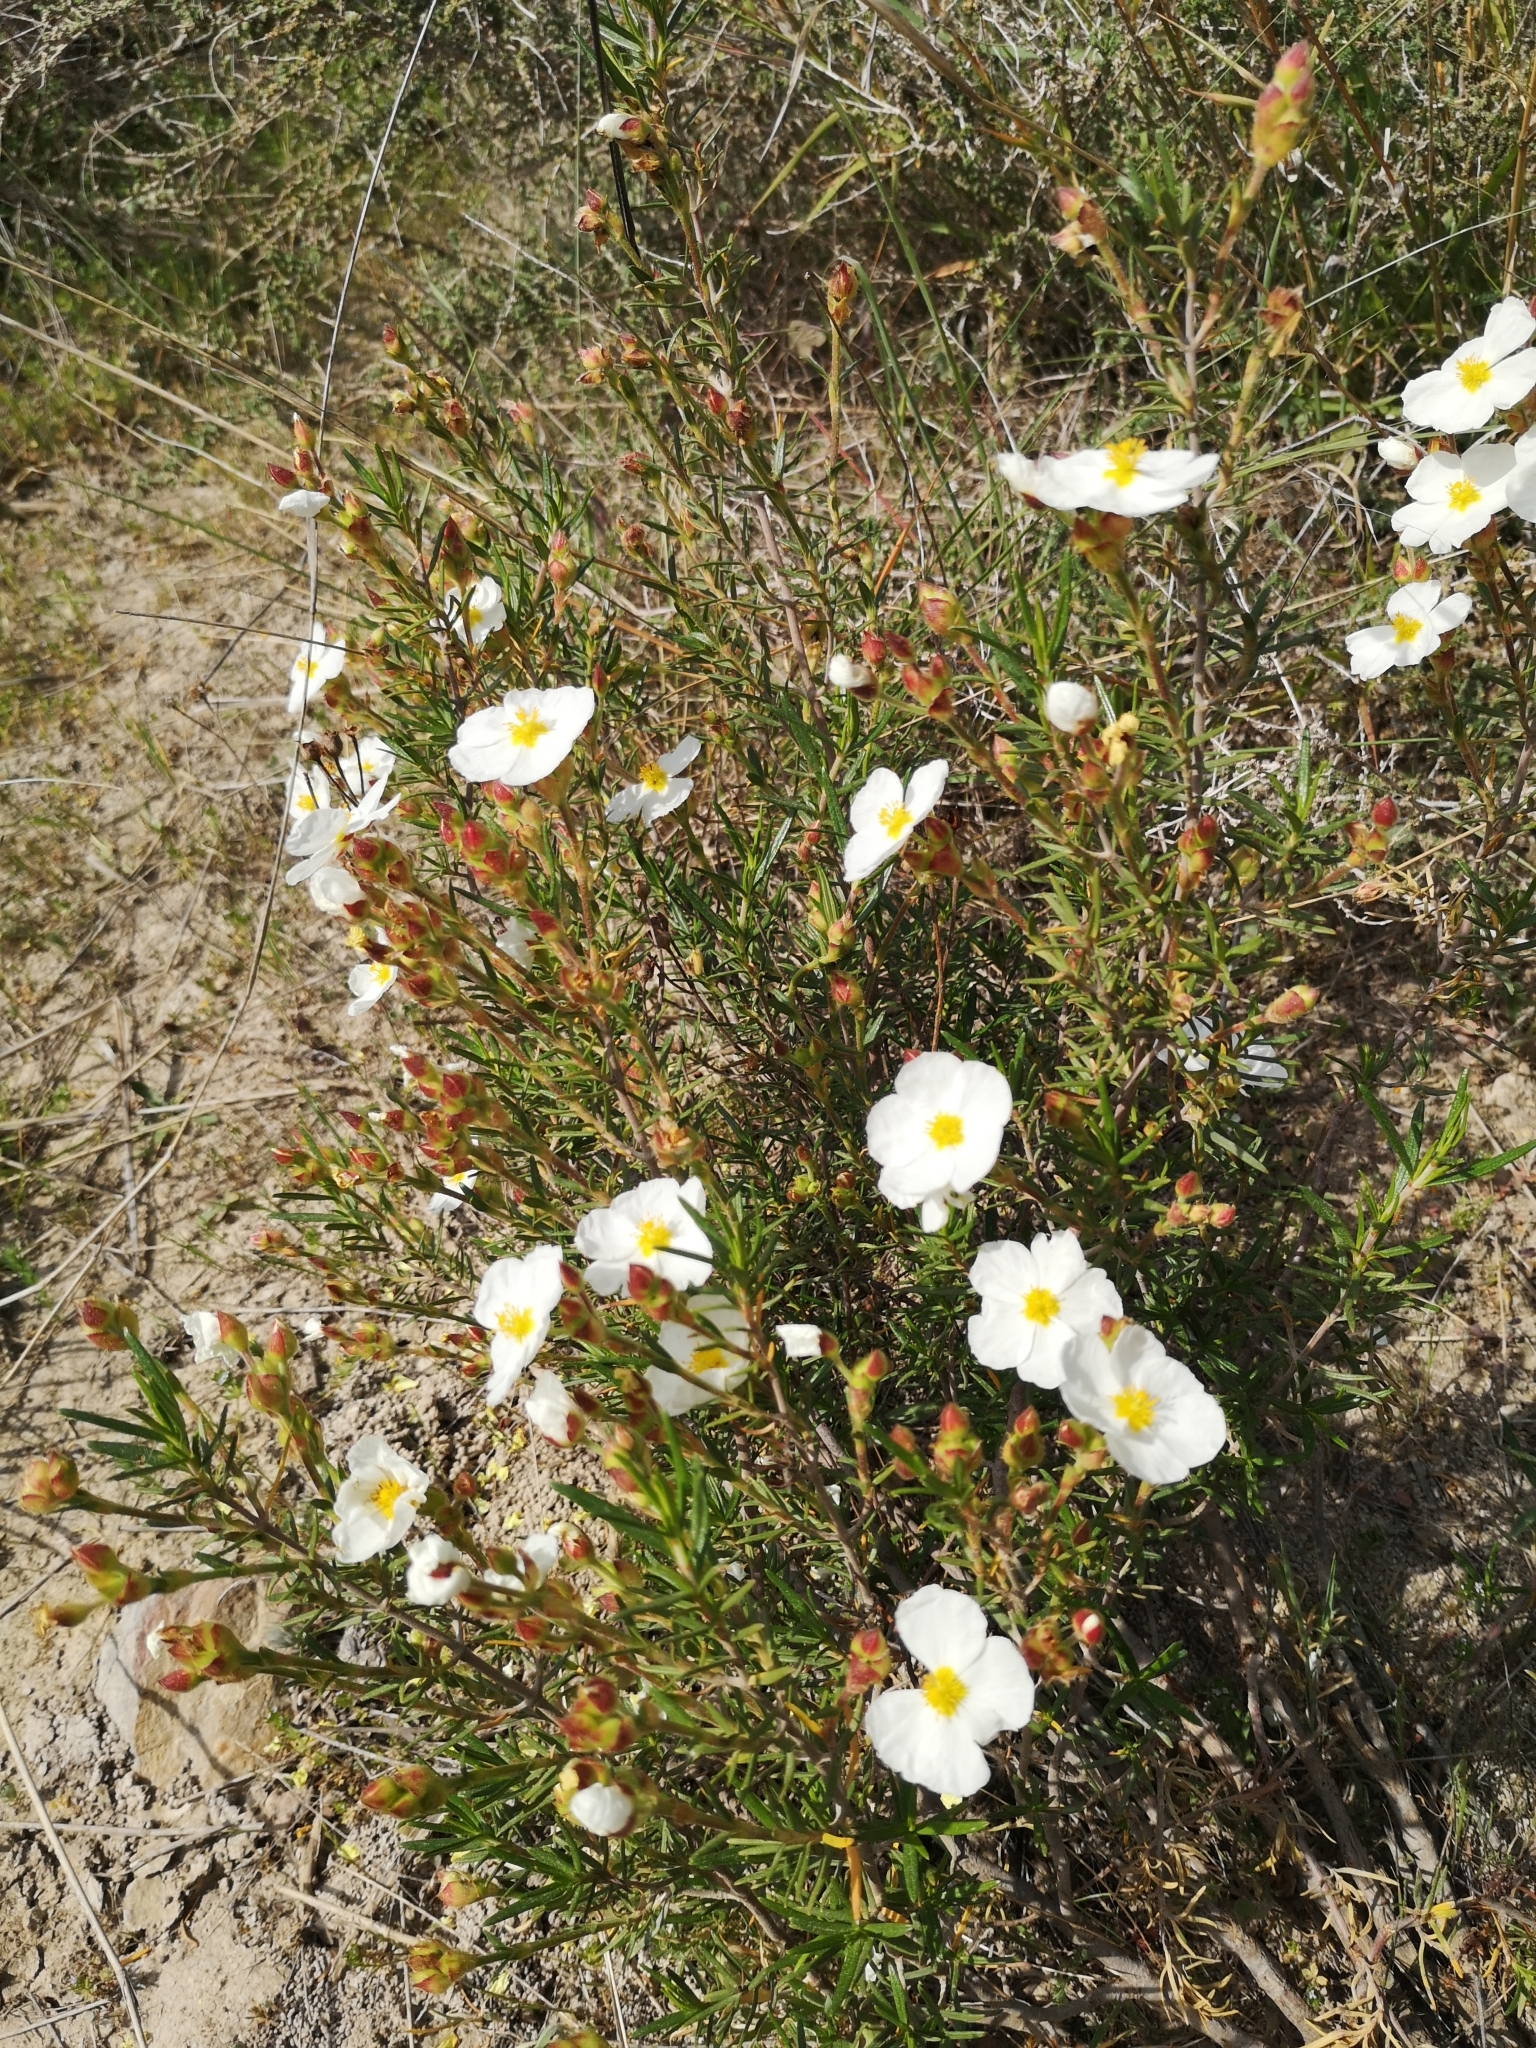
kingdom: Plantae
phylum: Tracheophyta
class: Magnoliopsida
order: Malvales
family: Cistaceae
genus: Cistus
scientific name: Cistus clusii
